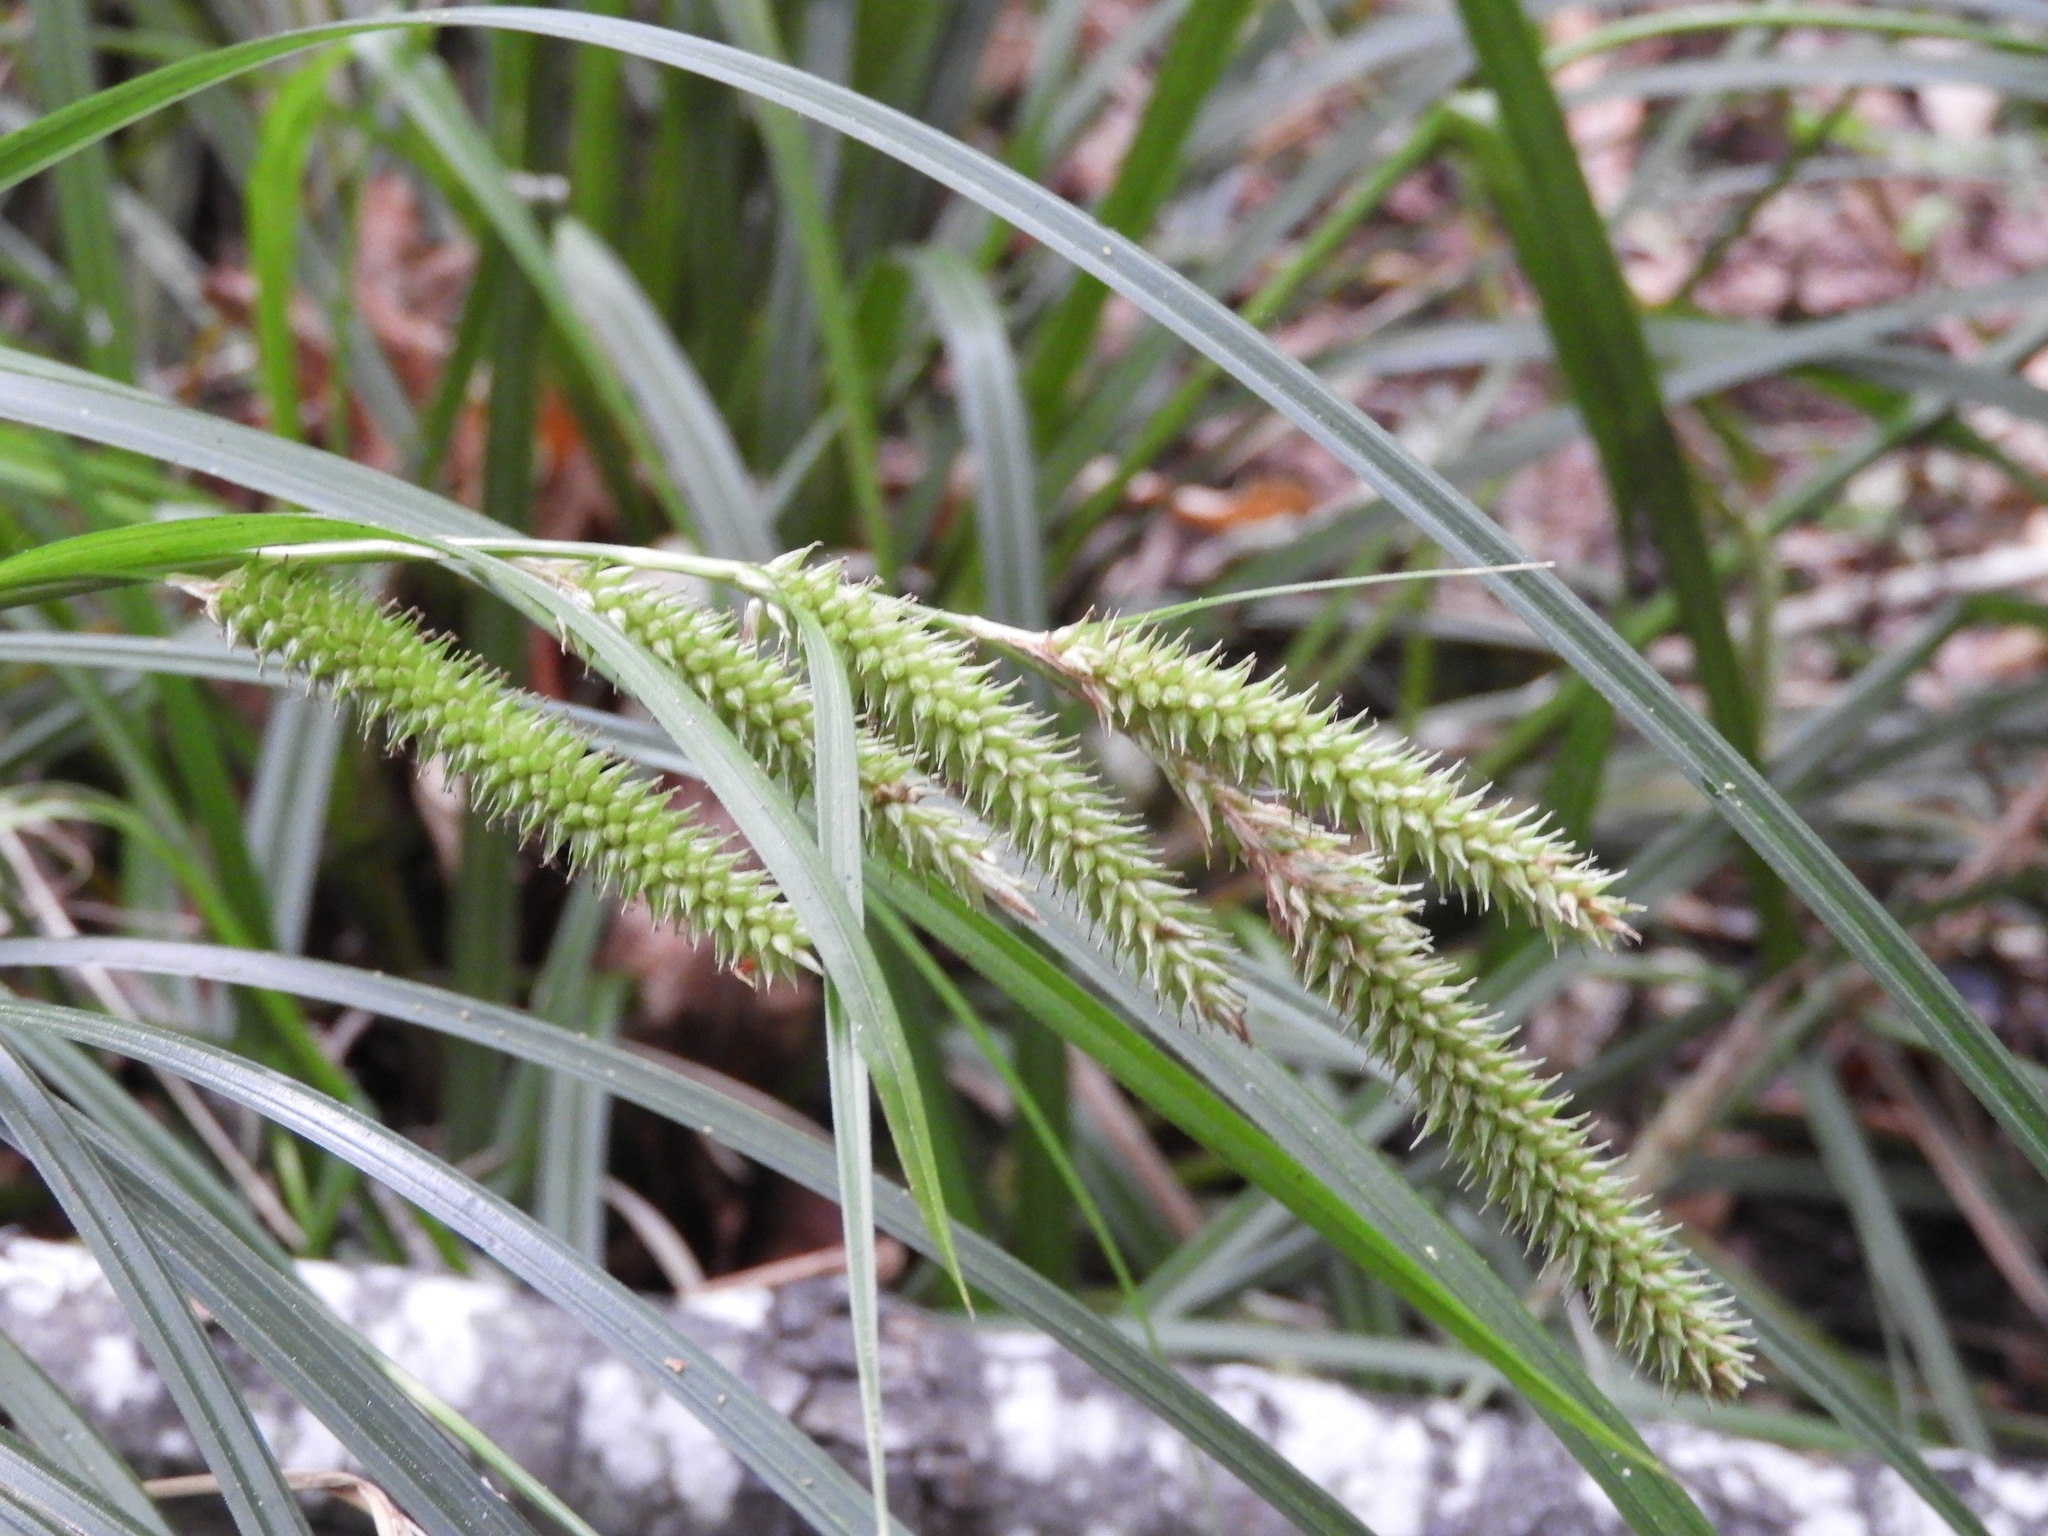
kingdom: Plantae
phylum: Tracheophyta
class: Liliopsida
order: Poales
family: Cyperaceae
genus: Carex
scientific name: Carex forsteri
